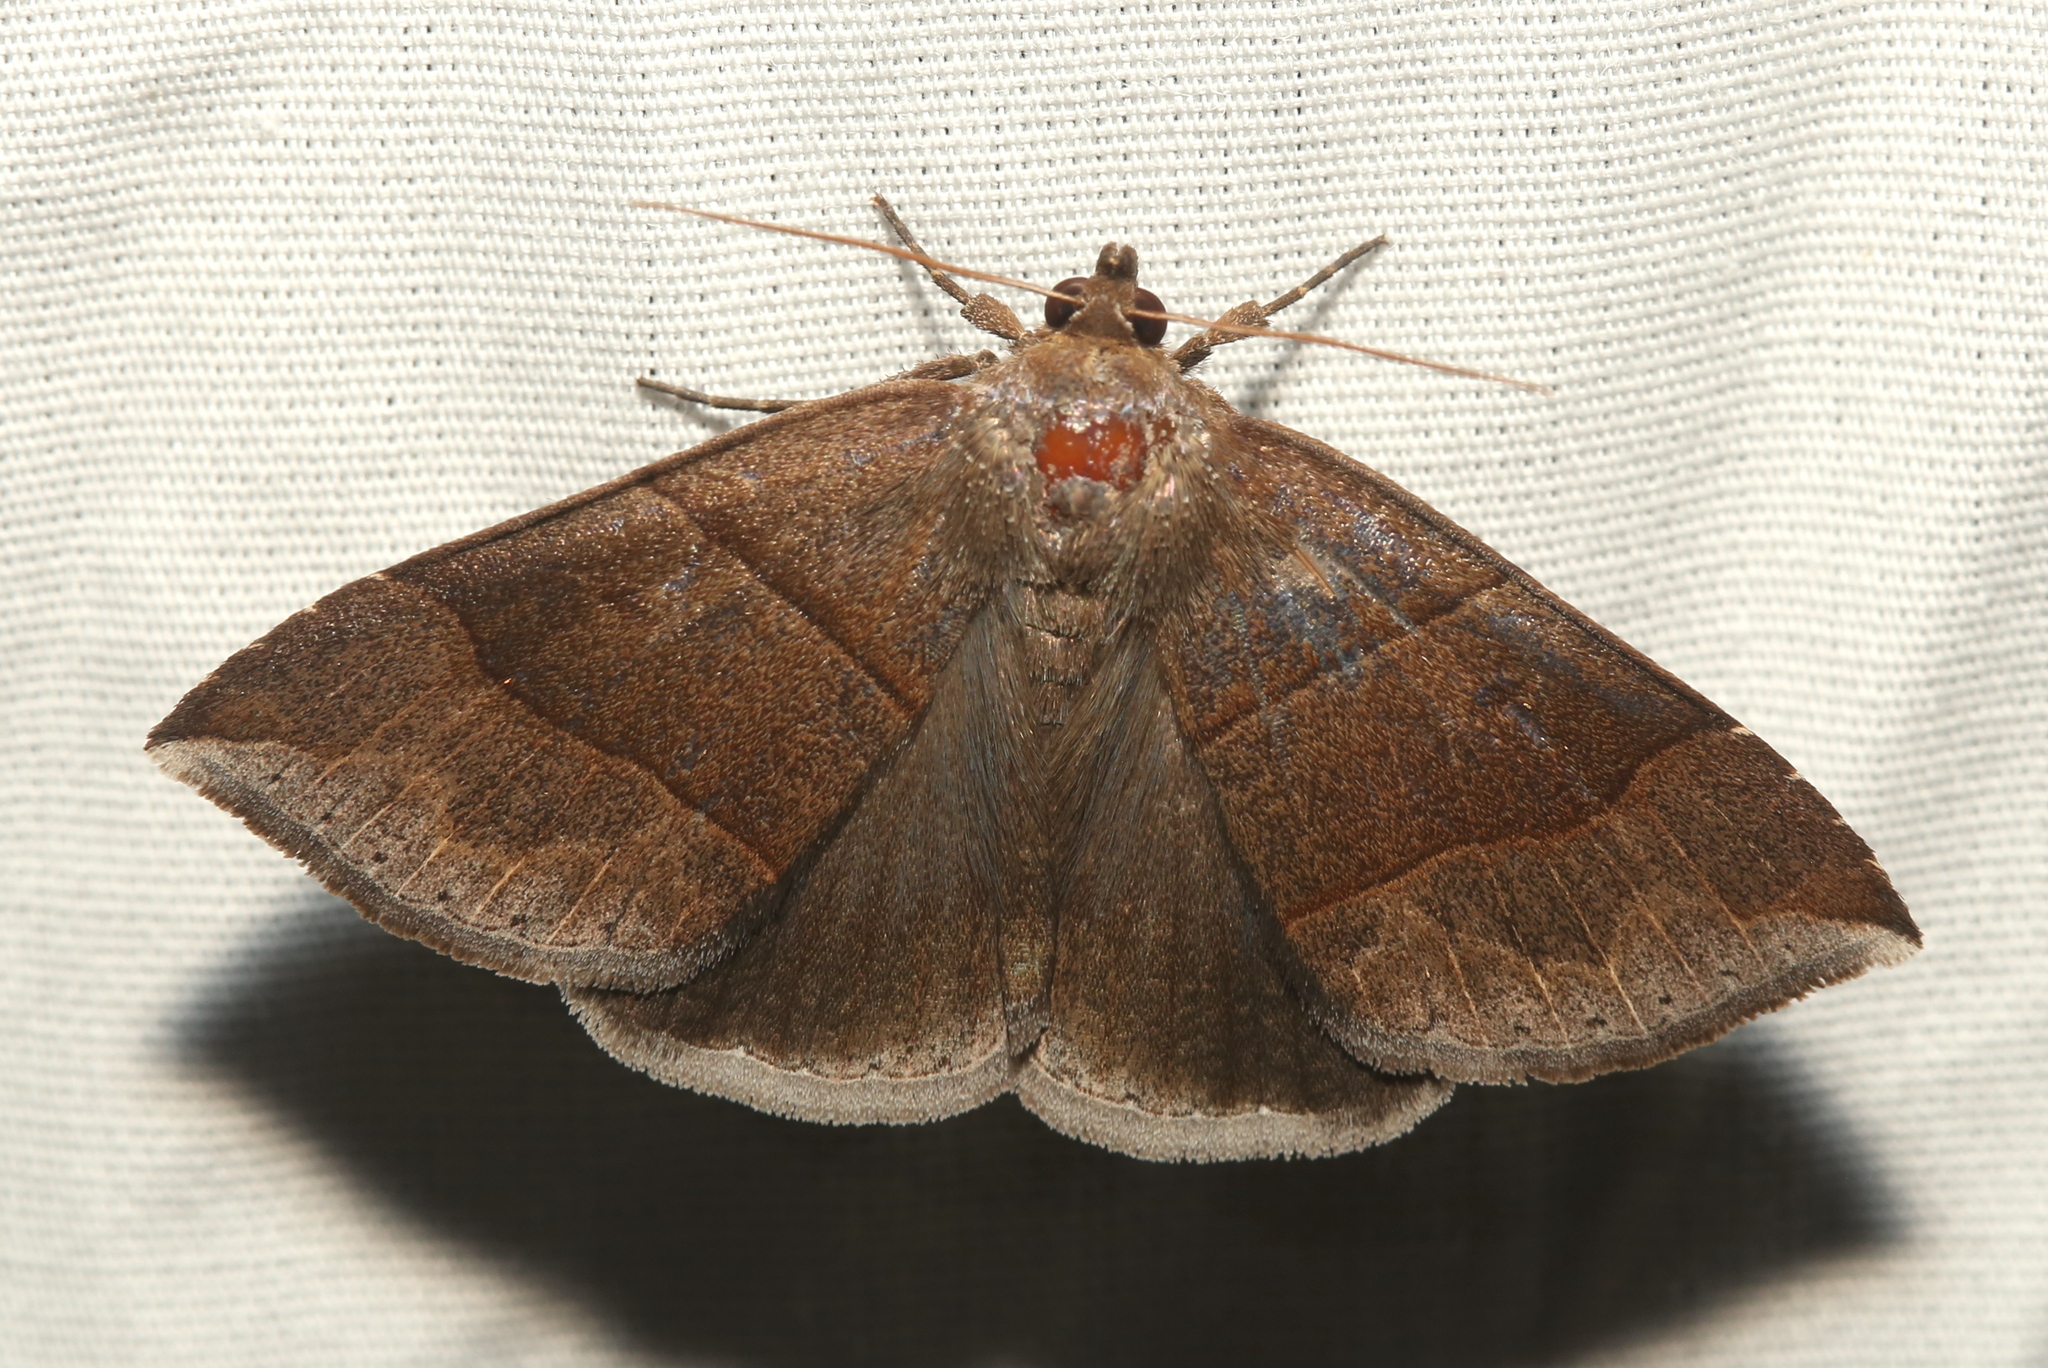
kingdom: Animalia
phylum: Arthropoda
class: Insecta
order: Lepidoptera
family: Erebidae
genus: Parallelia
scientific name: Parallelia bistriaris
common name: Maple looper moth
